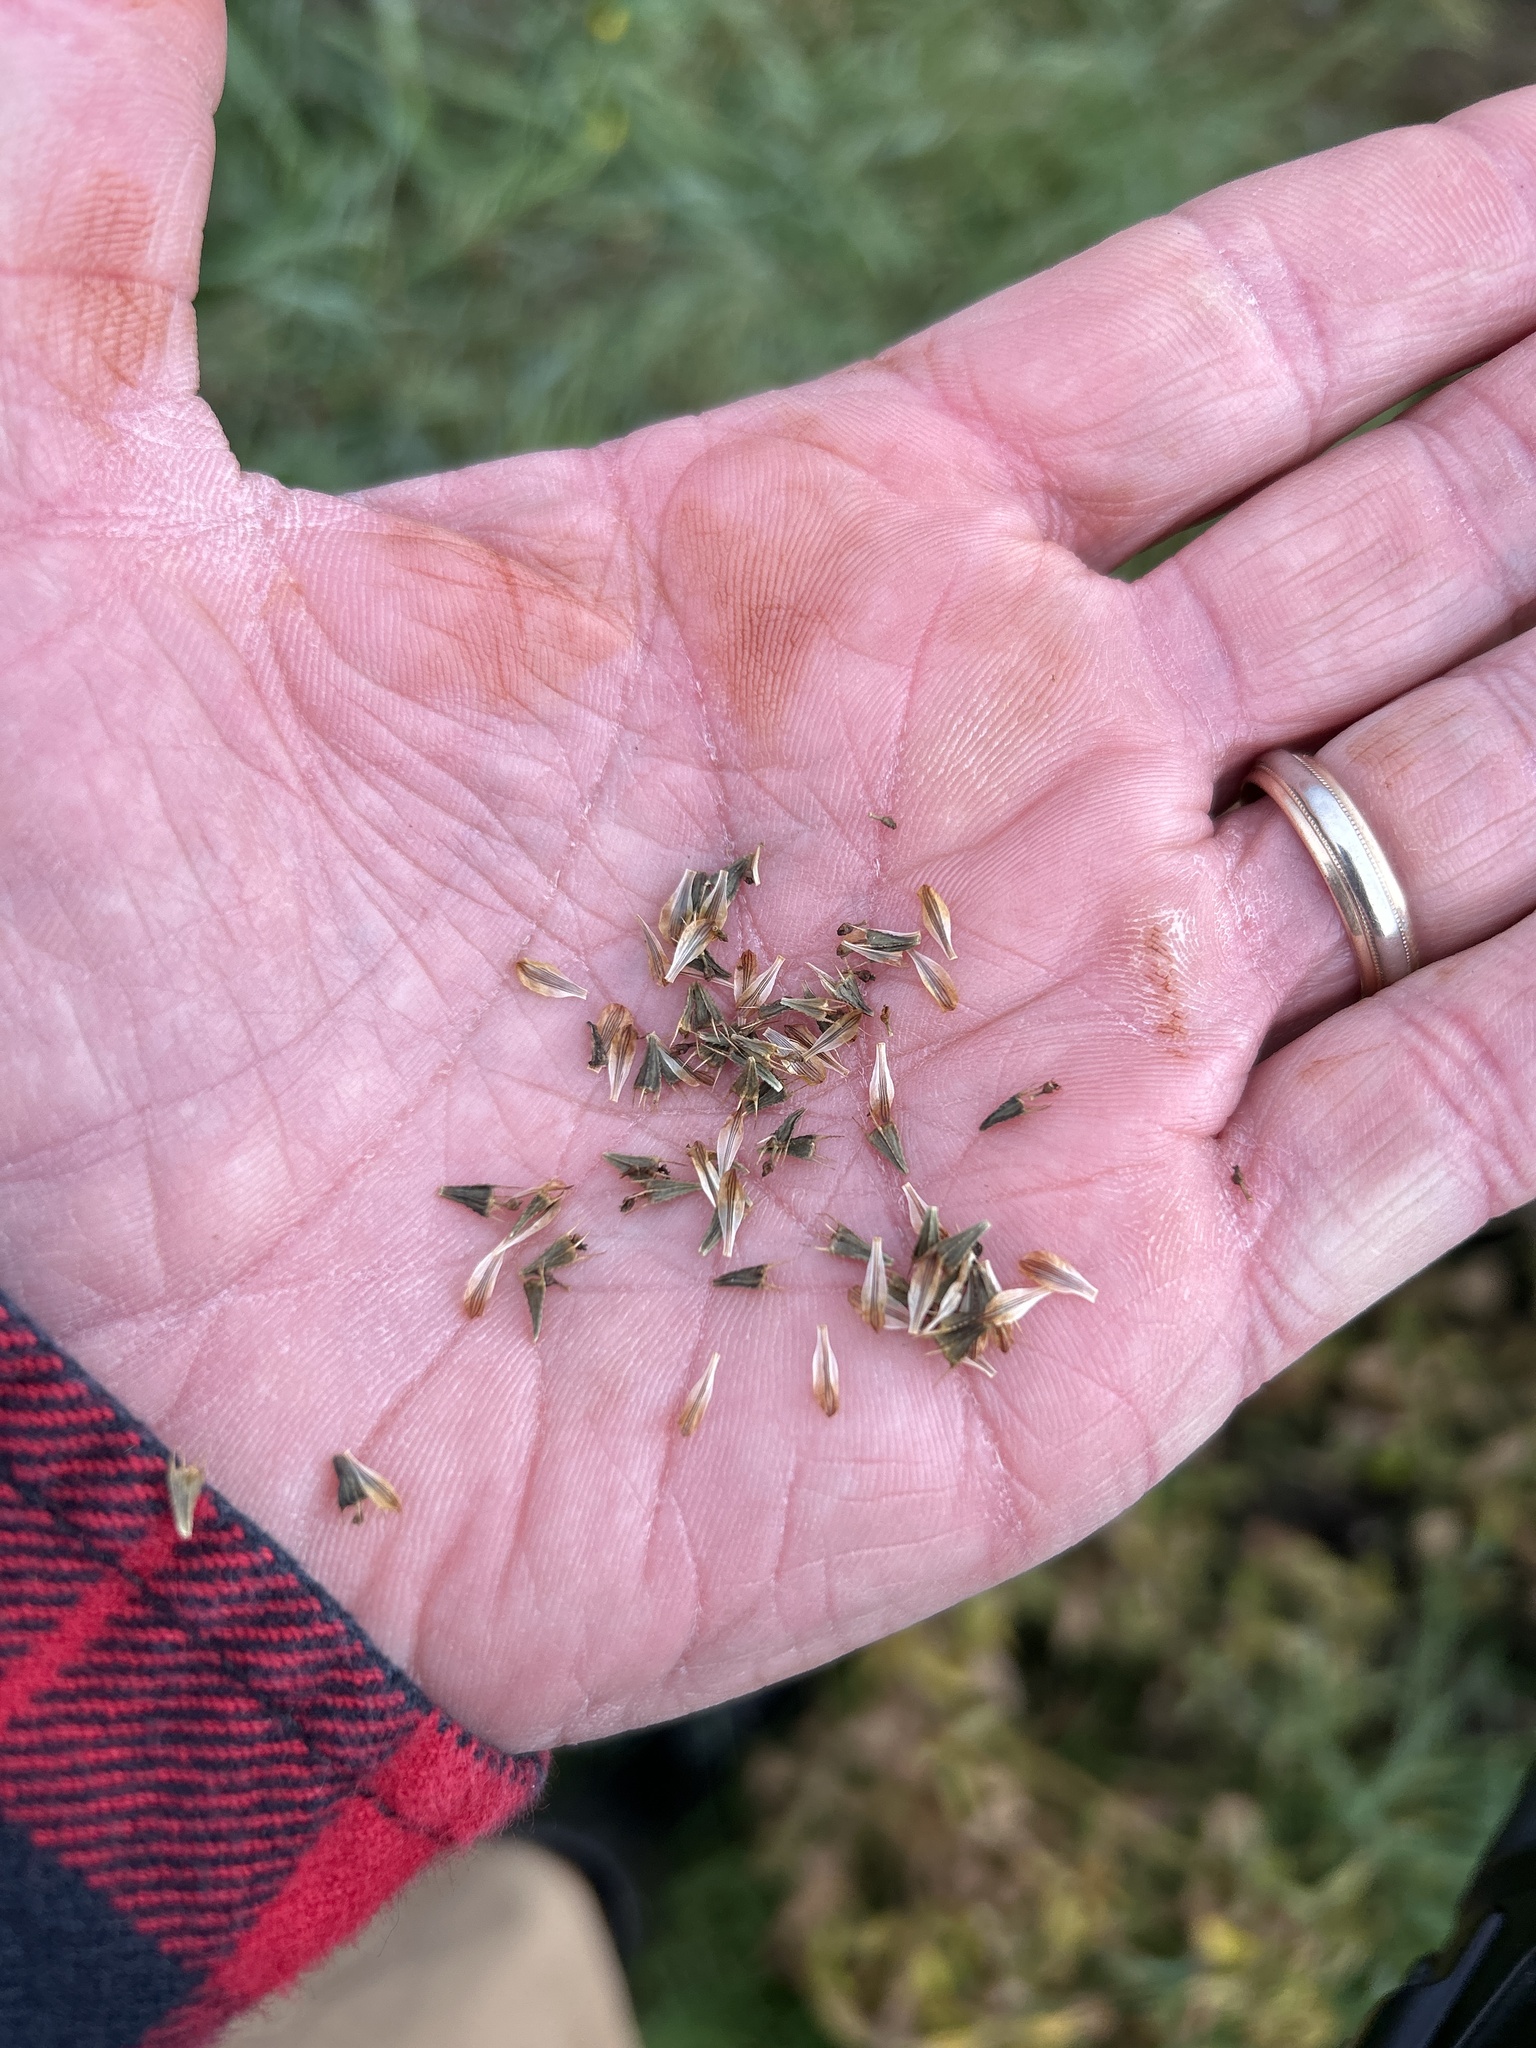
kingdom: Plantae
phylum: Tracheophyta
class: Magnoliopsida
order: Asterales
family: Asteraceae
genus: Bidens
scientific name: Bidens cernua
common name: Nodding bur-marigold
